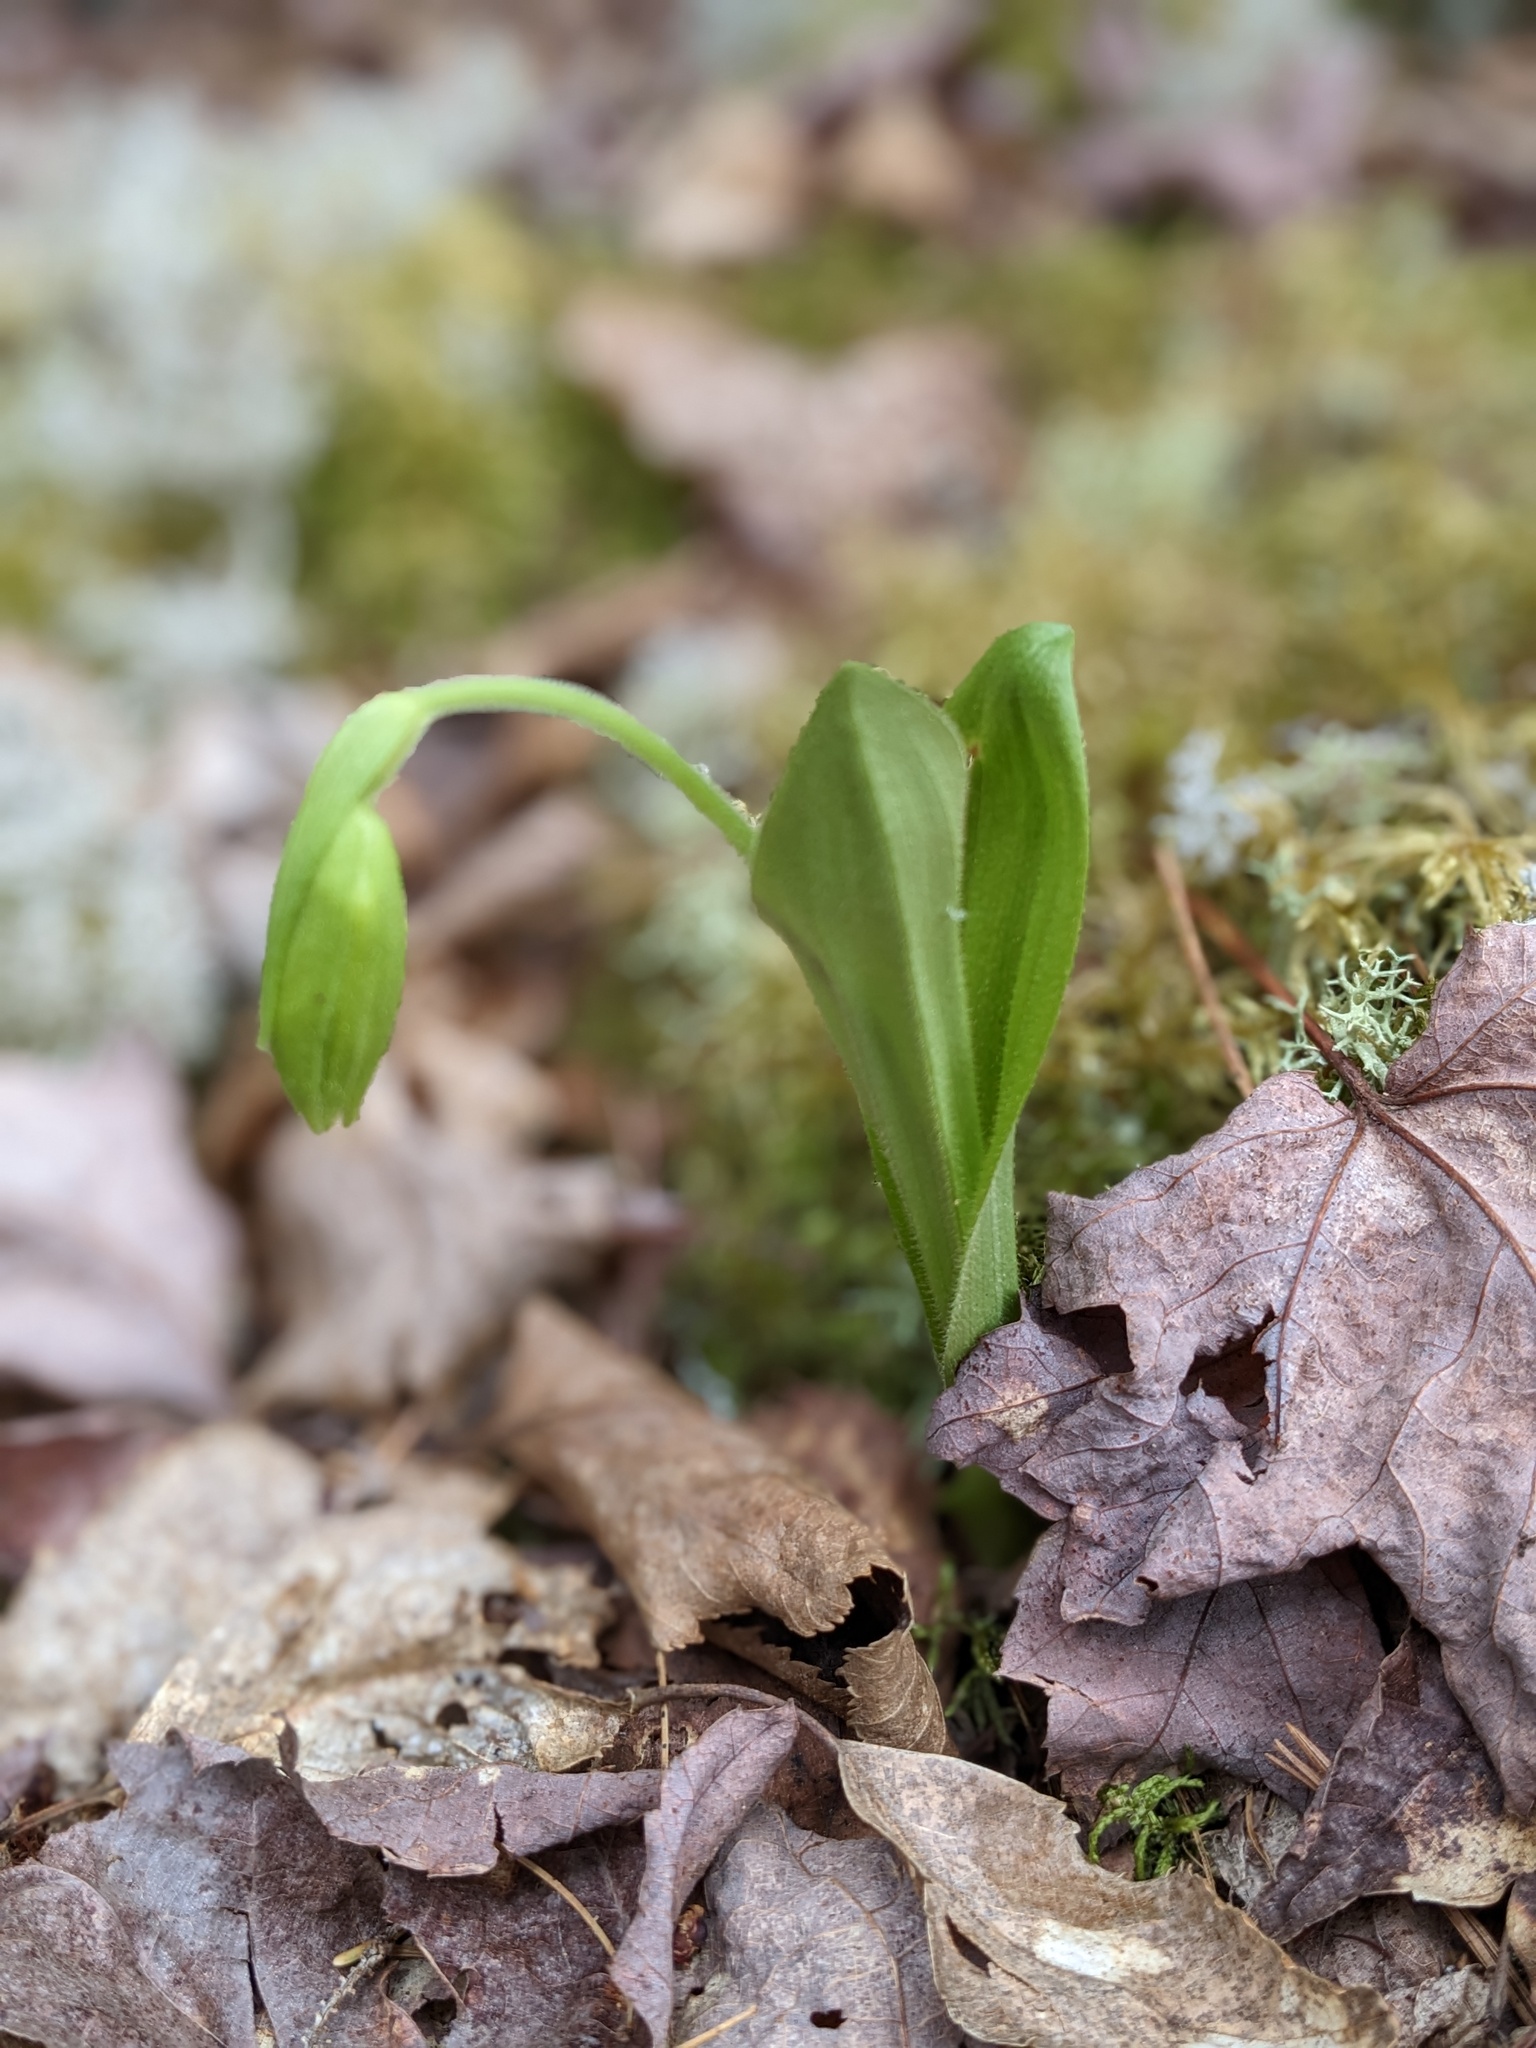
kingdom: Plantae
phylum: Tracheophyta
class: Liliopsida
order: Asparagales
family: Orchidaceae
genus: Cypripedium
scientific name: Cypripedium acaule
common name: Pink lady's-slipper
